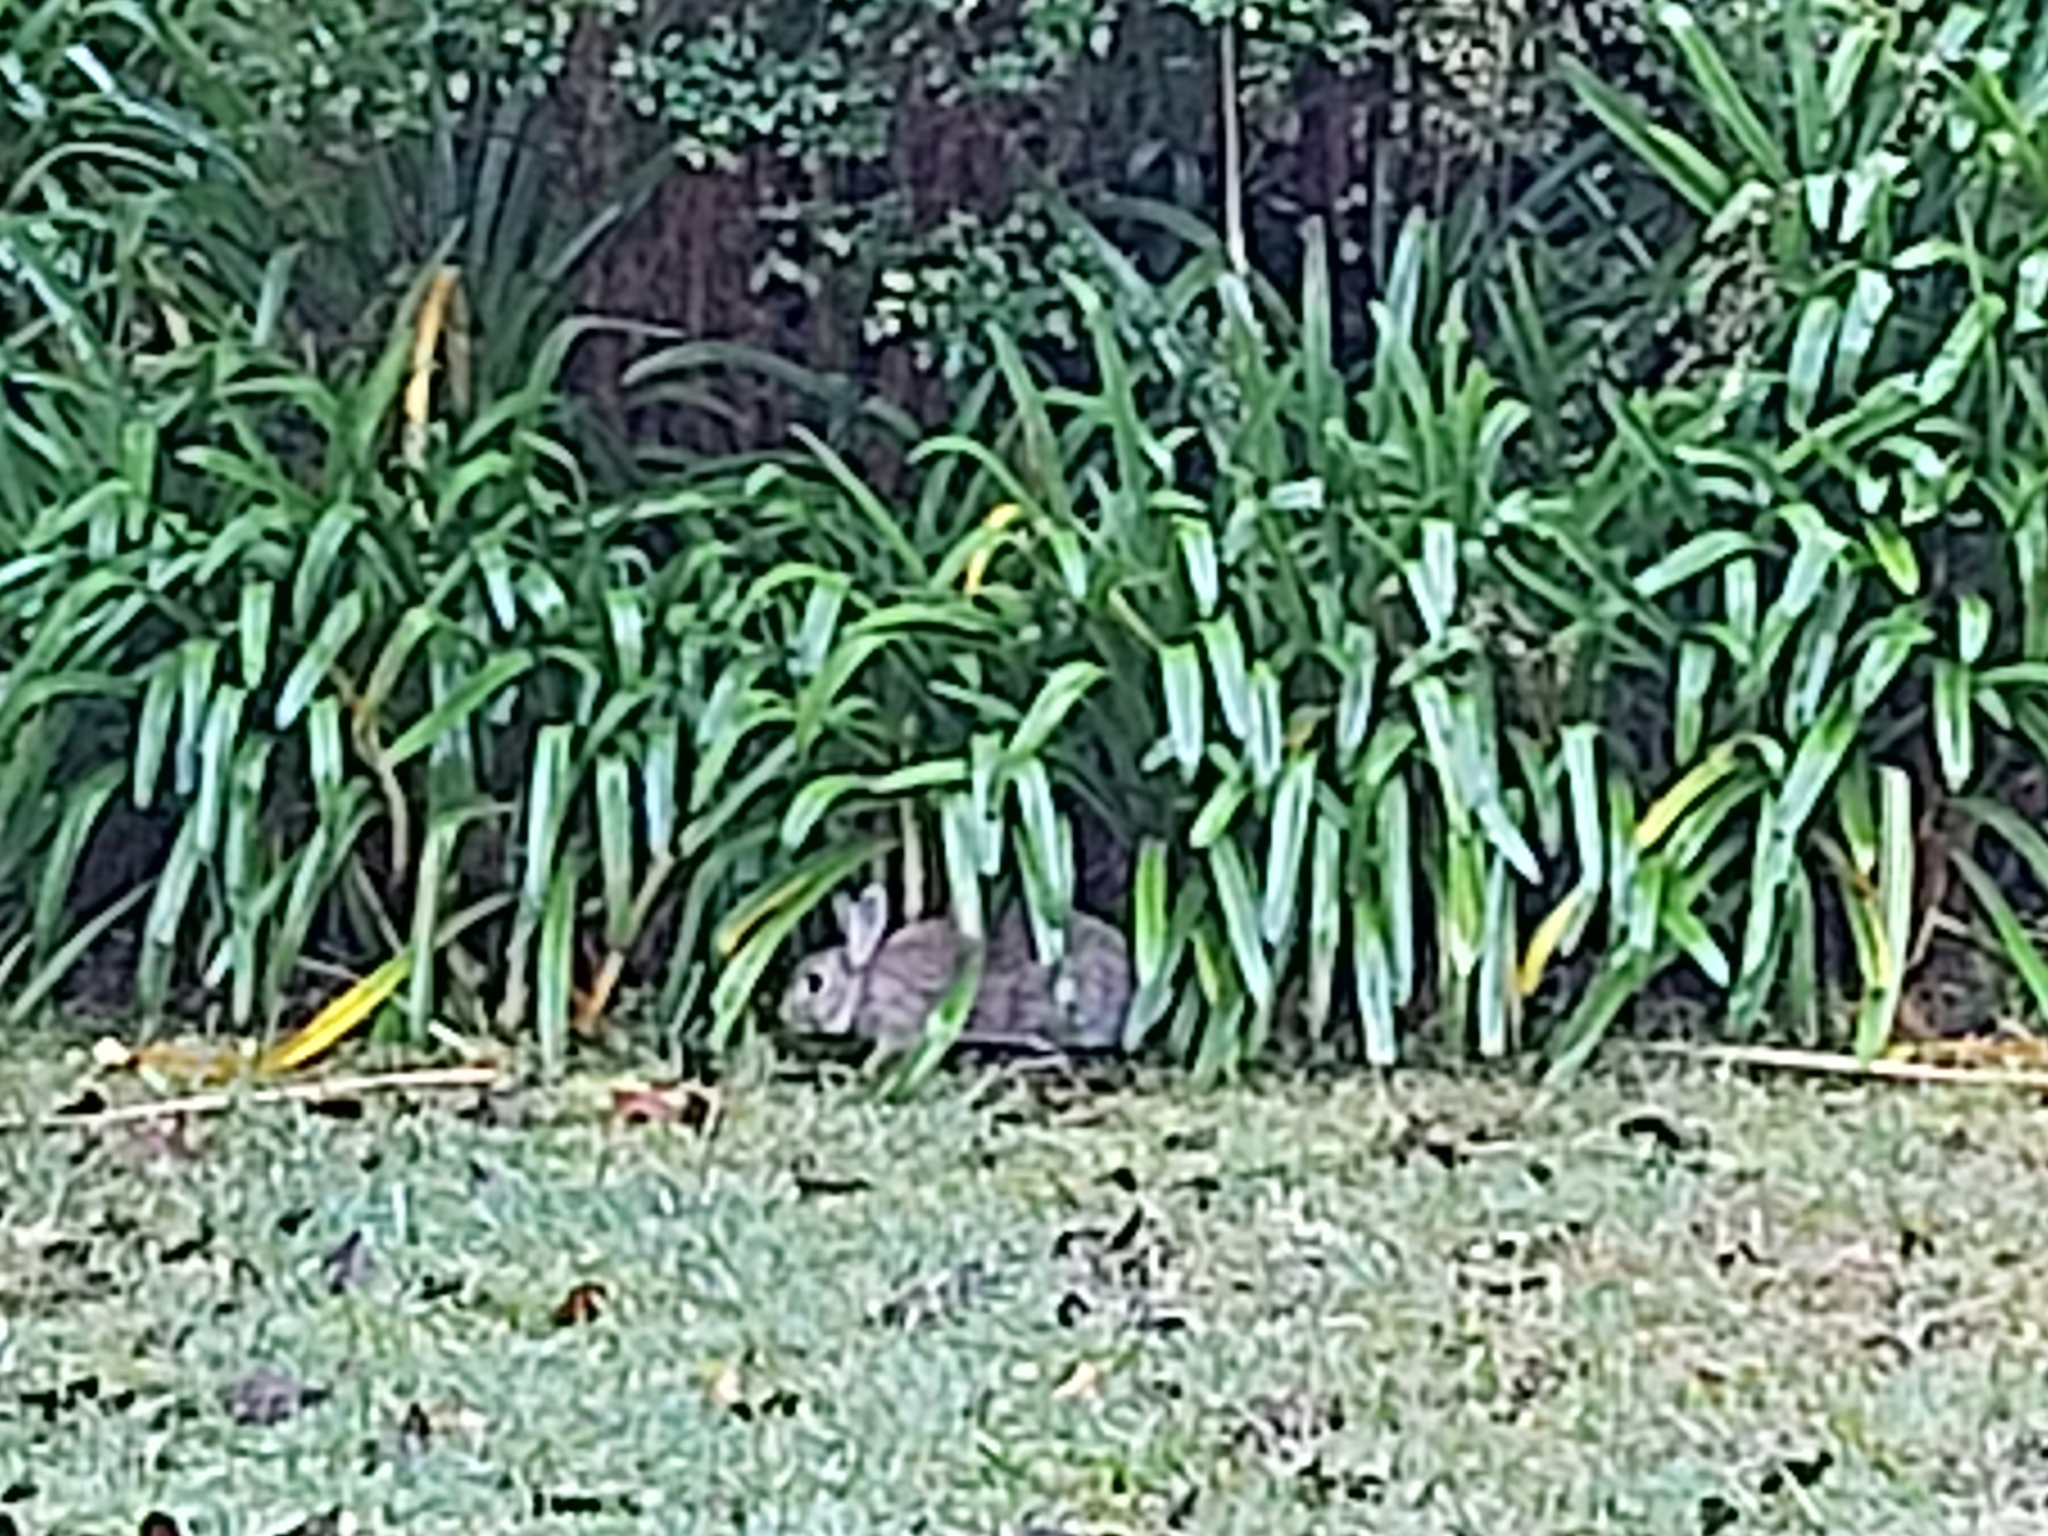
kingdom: Animalia
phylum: Chordata
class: Mammalia
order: Lagomorpha
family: Leporidae
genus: Oryctolagus
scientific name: Oryctolagus cuniculus
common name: European rabbit
